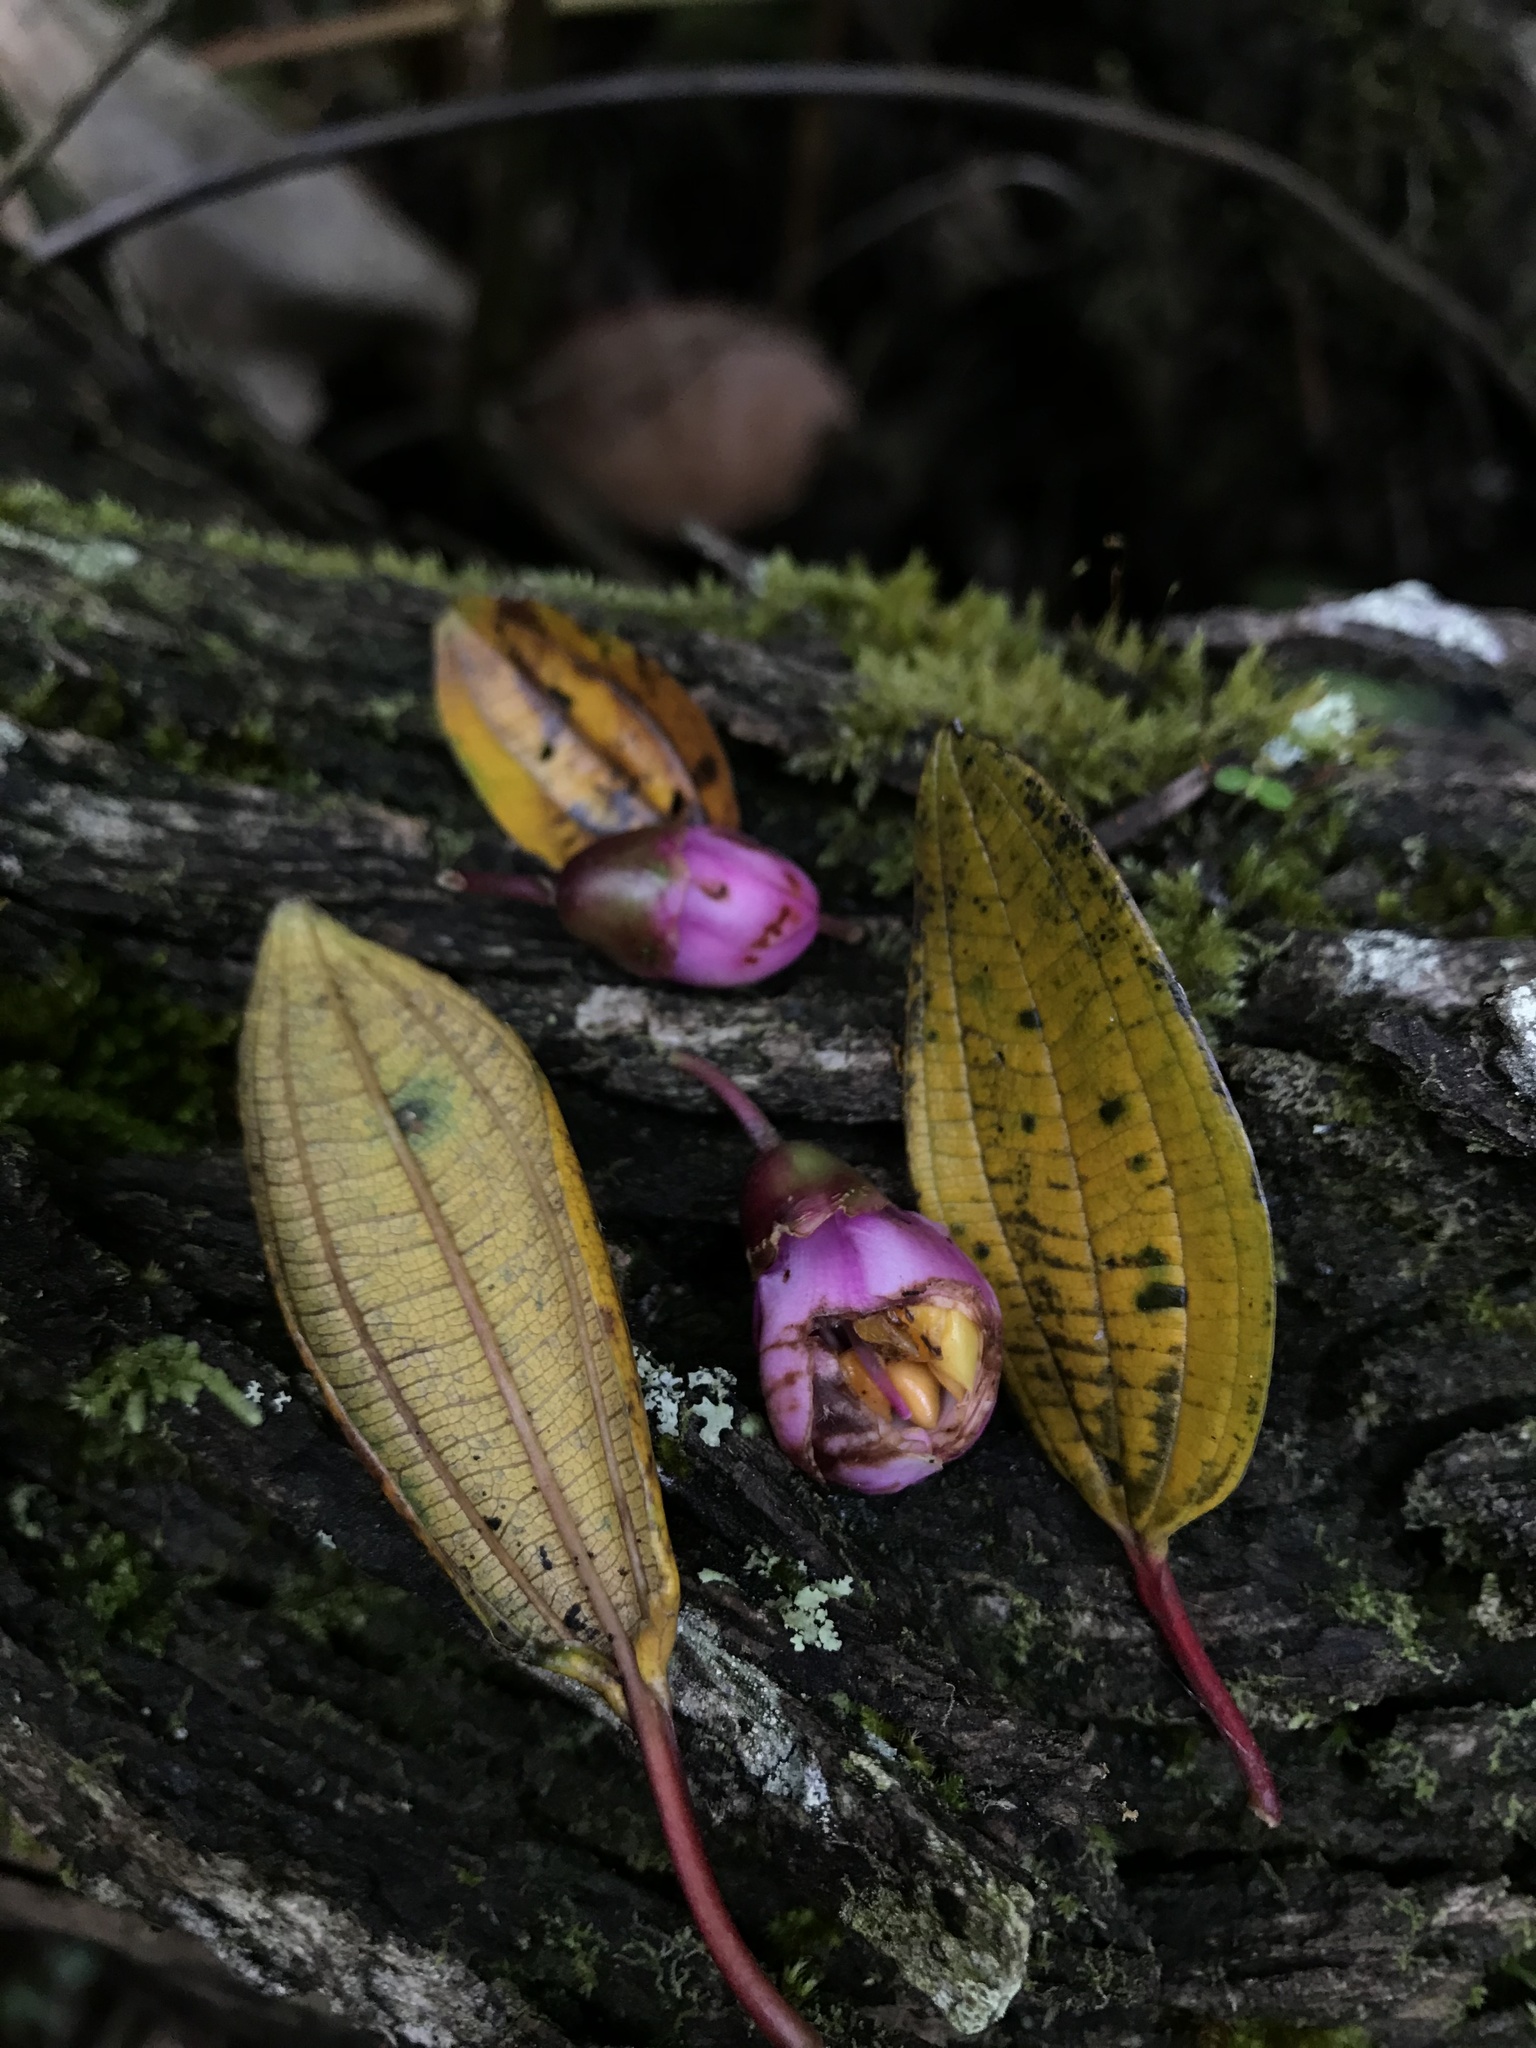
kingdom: Plantae
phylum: Tracheophyta
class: Magnoliopsida
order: Myrtales
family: Melastomataceae
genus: Axinaea
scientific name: Axinaea macrophylla
